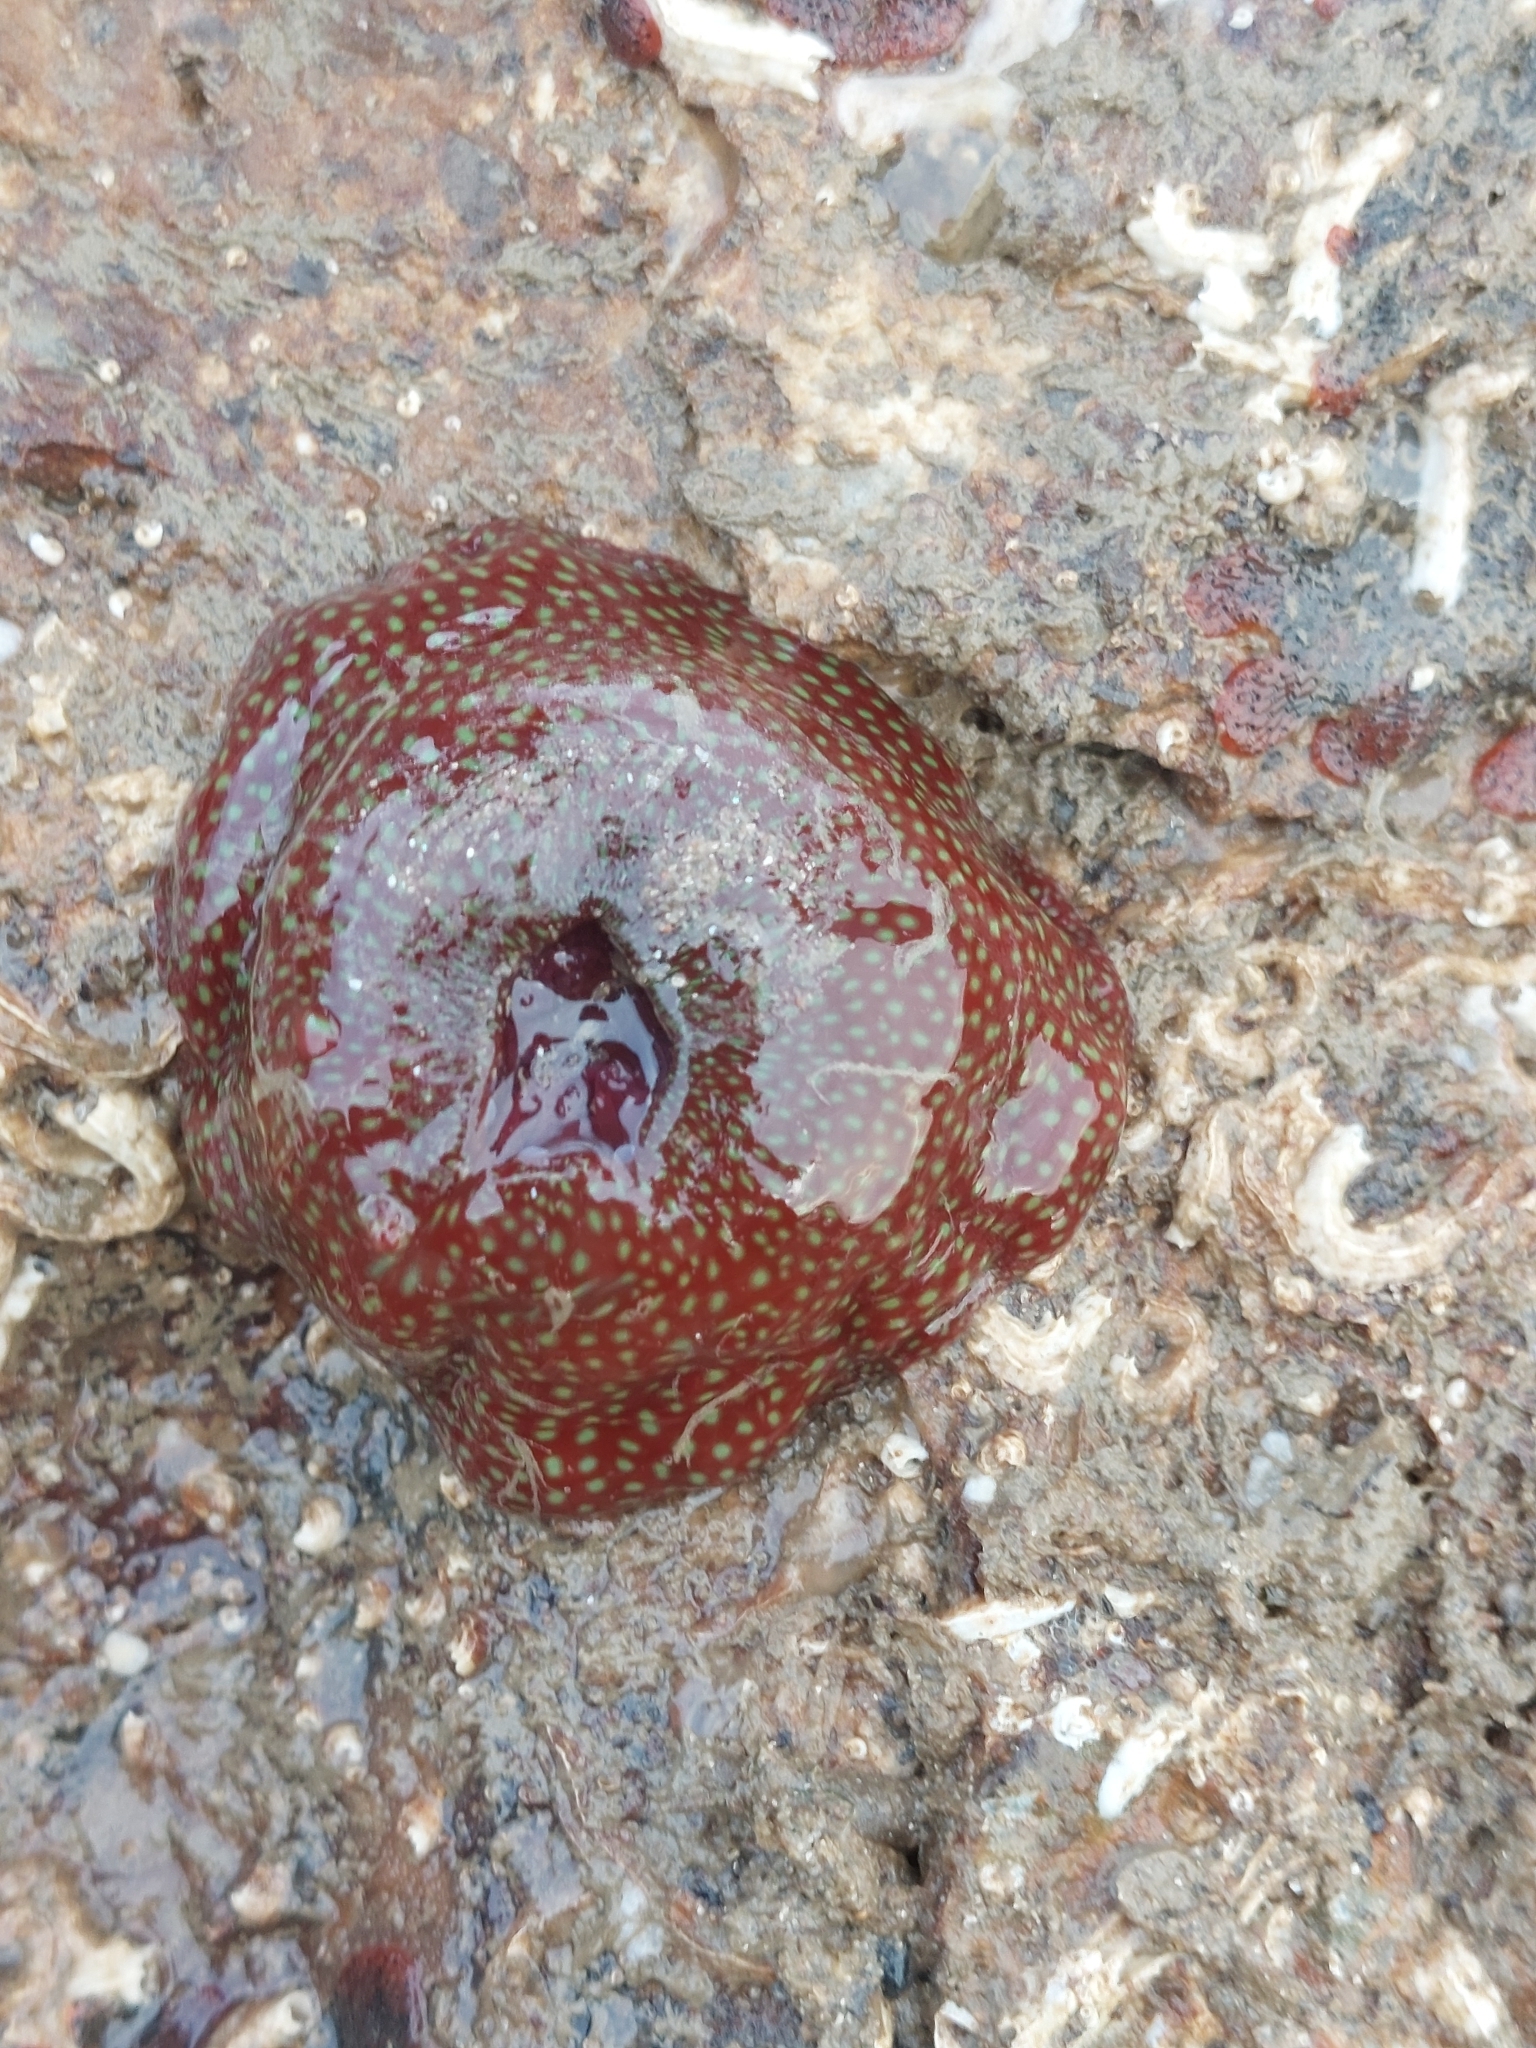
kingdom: Animalia
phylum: Cnidaria
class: Anthozoa
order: Actiniaria
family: Actiniidae
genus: Actinia
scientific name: Actinia fragacea
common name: Strawberry anemone
